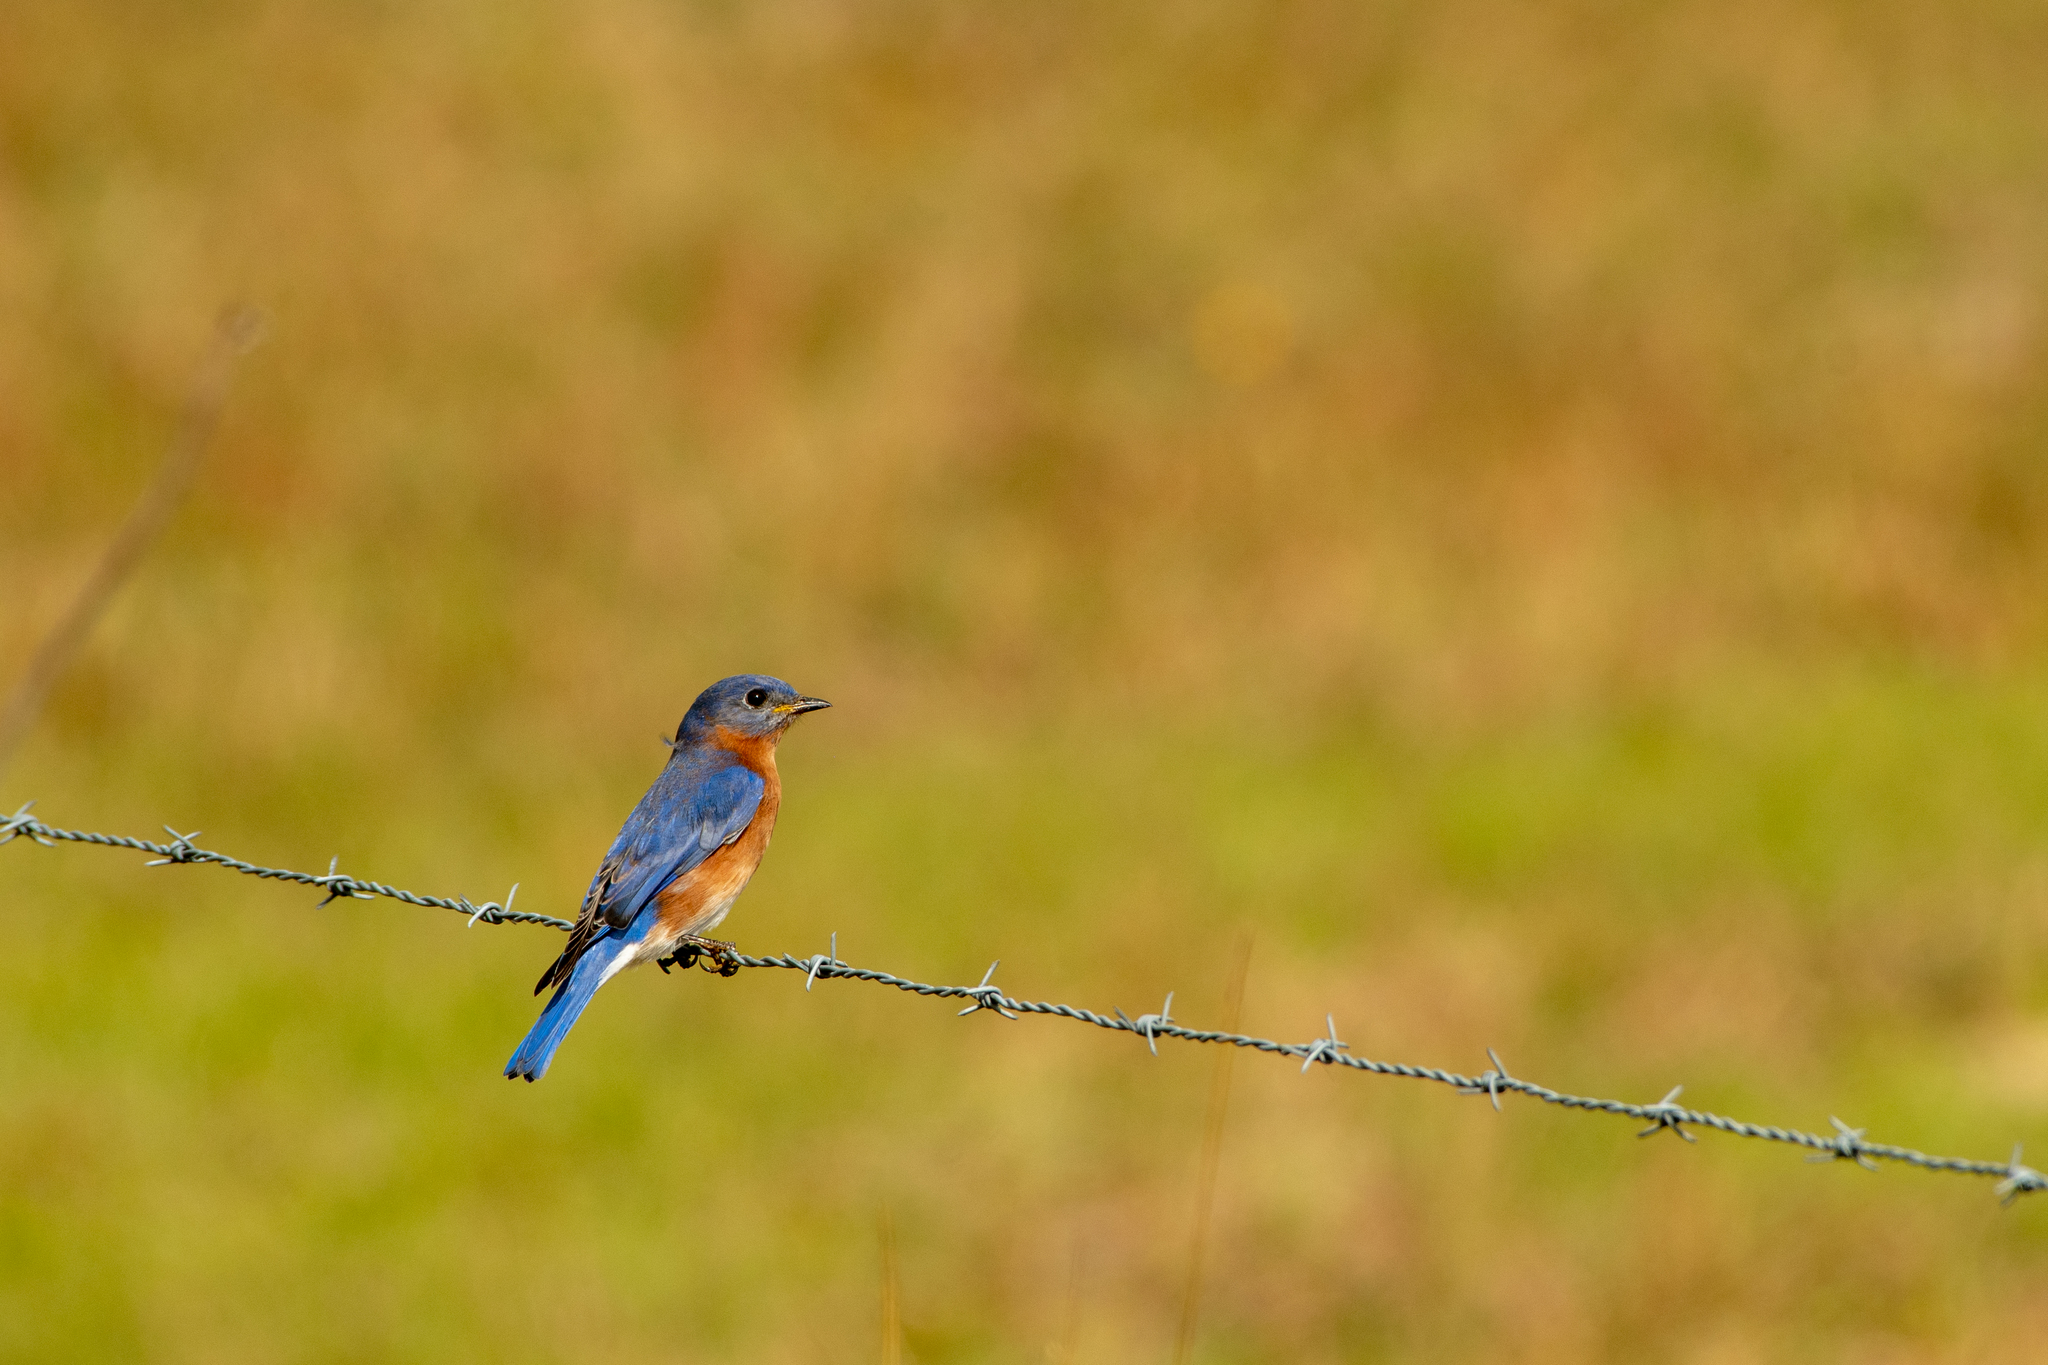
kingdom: Animalia
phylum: Chordata
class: Aves
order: Passeriformes
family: Turdidae
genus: Sialia
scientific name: Sialia sialis
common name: Eastern bluebird
